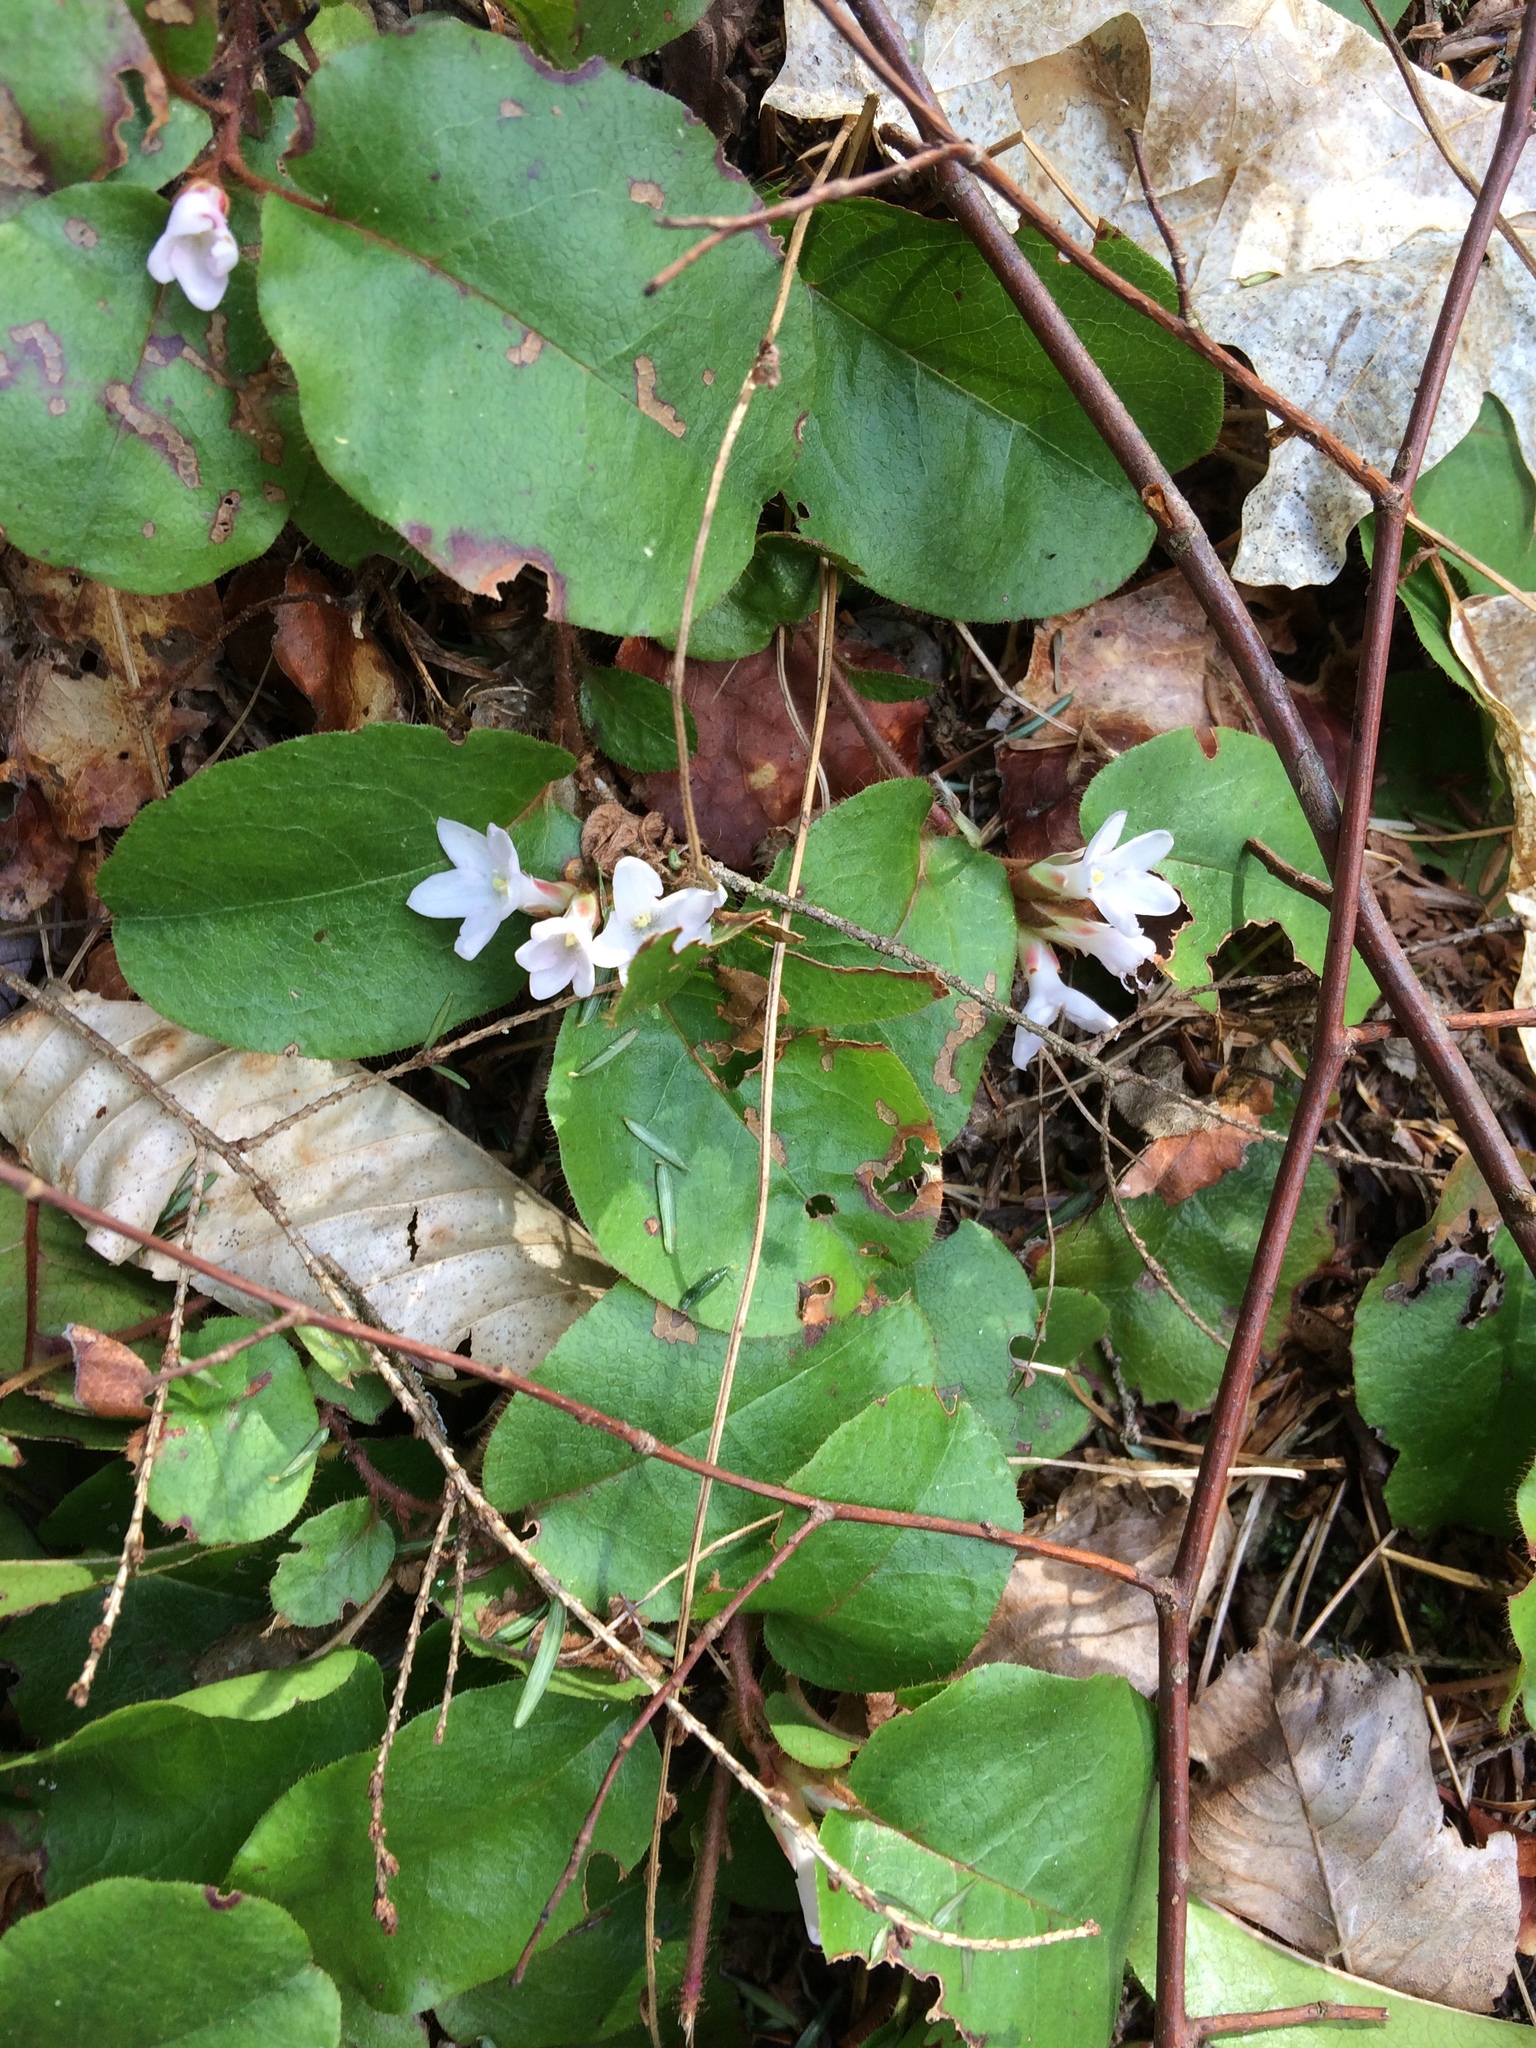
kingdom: Plantae
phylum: Tracheophyta
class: Magnoliopsida
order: Ericales
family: Ericaceae
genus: Epigaea
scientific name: Epigaea repens
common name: Gravelroot
